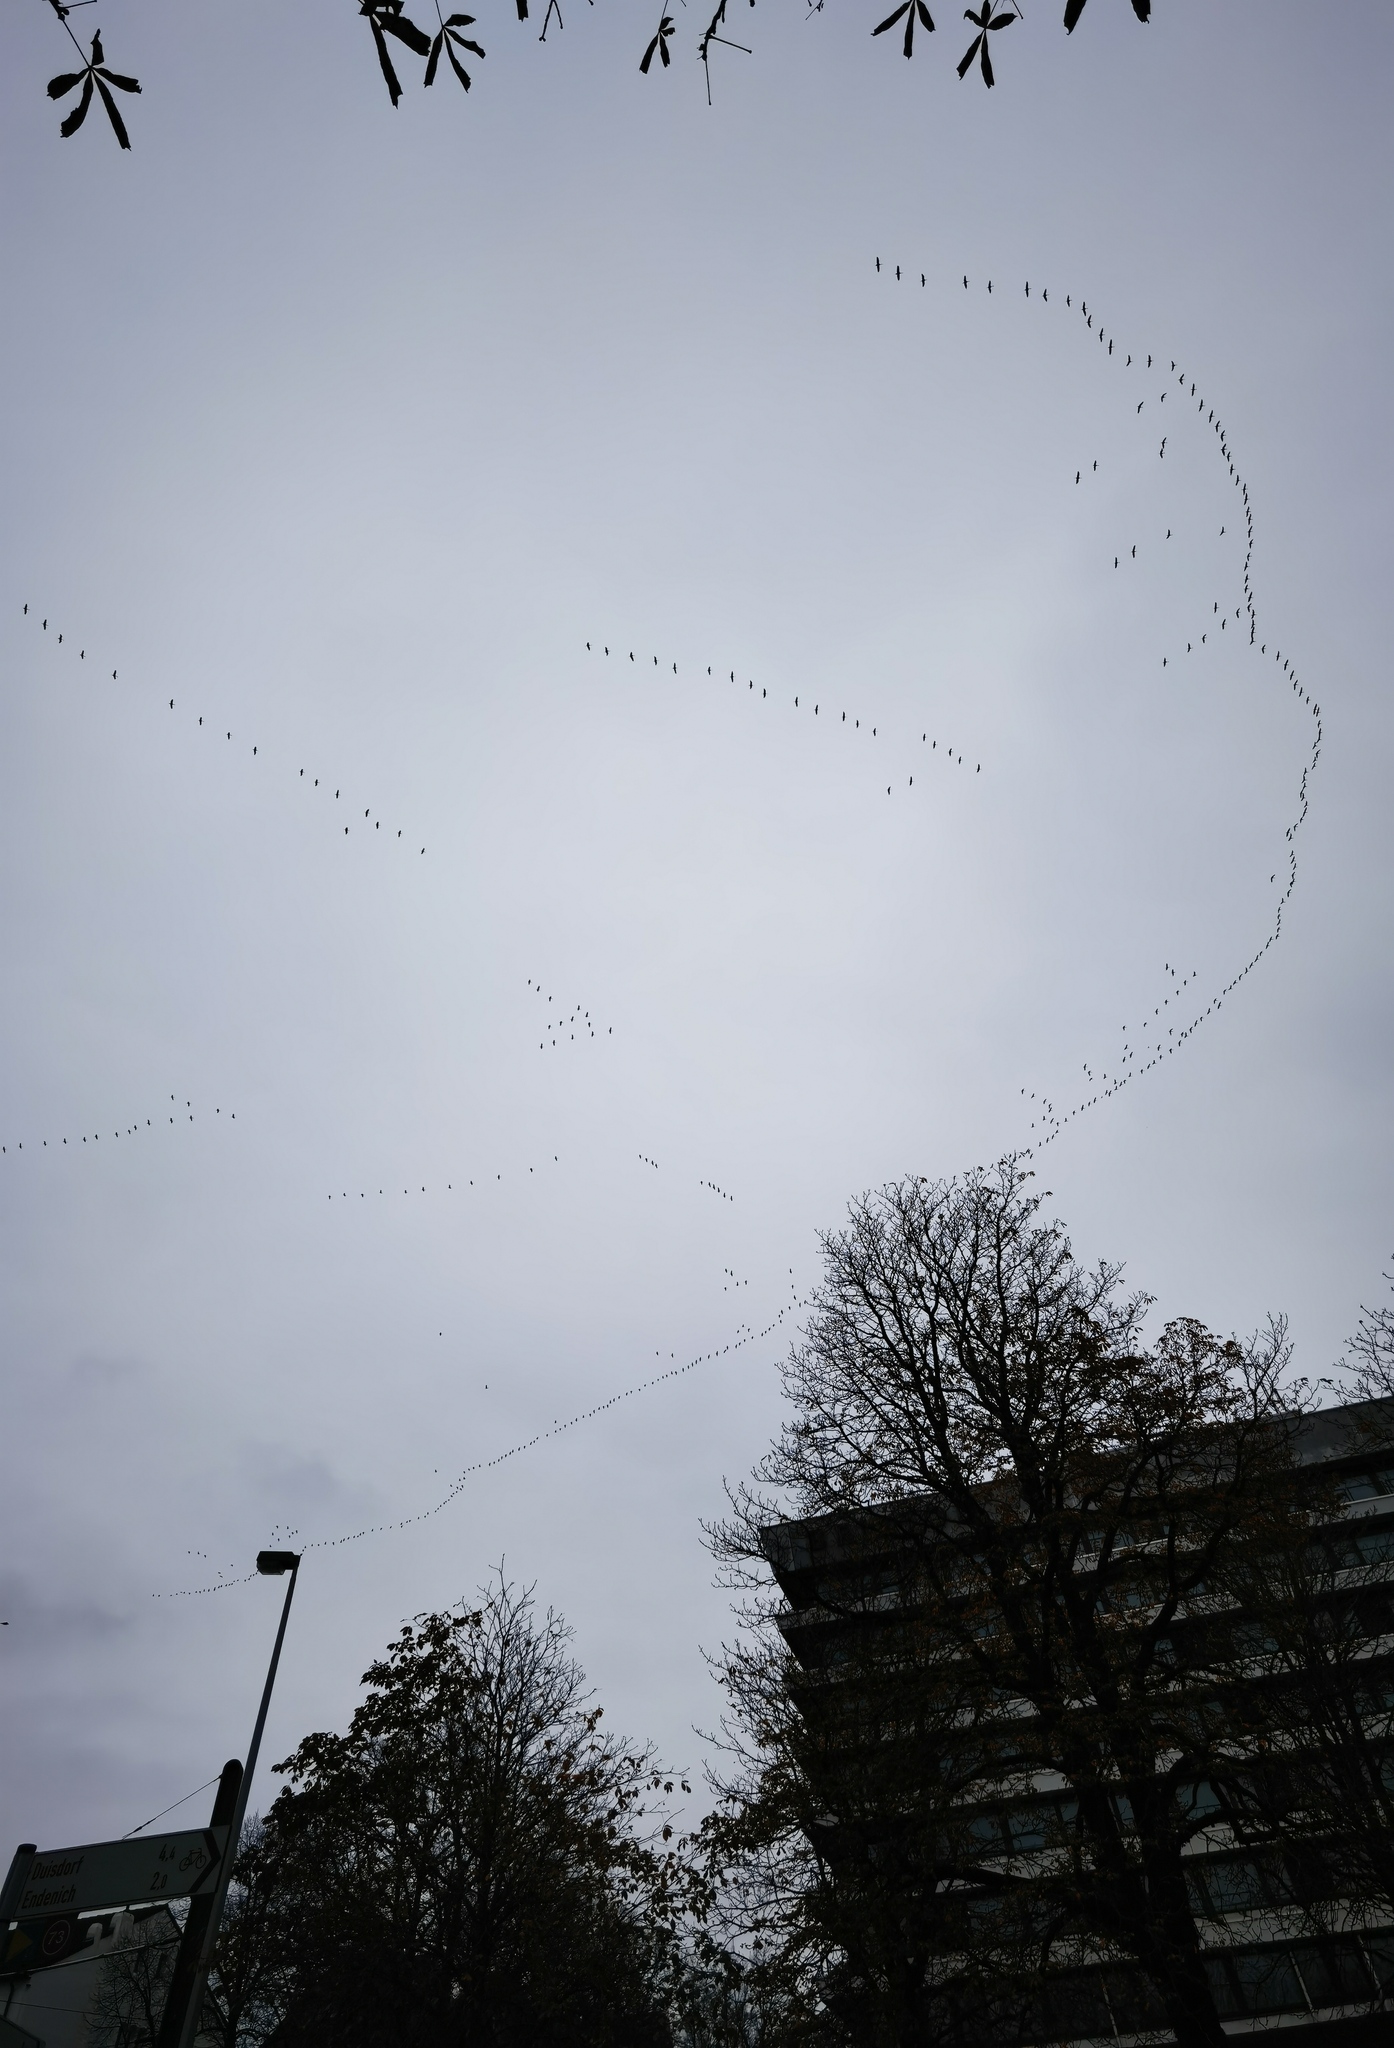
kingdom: Animalia
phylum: Chordata
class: Aves
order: Gruiformes
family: Gruidae
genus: Grus
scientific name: Grus grus
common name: Common crane
